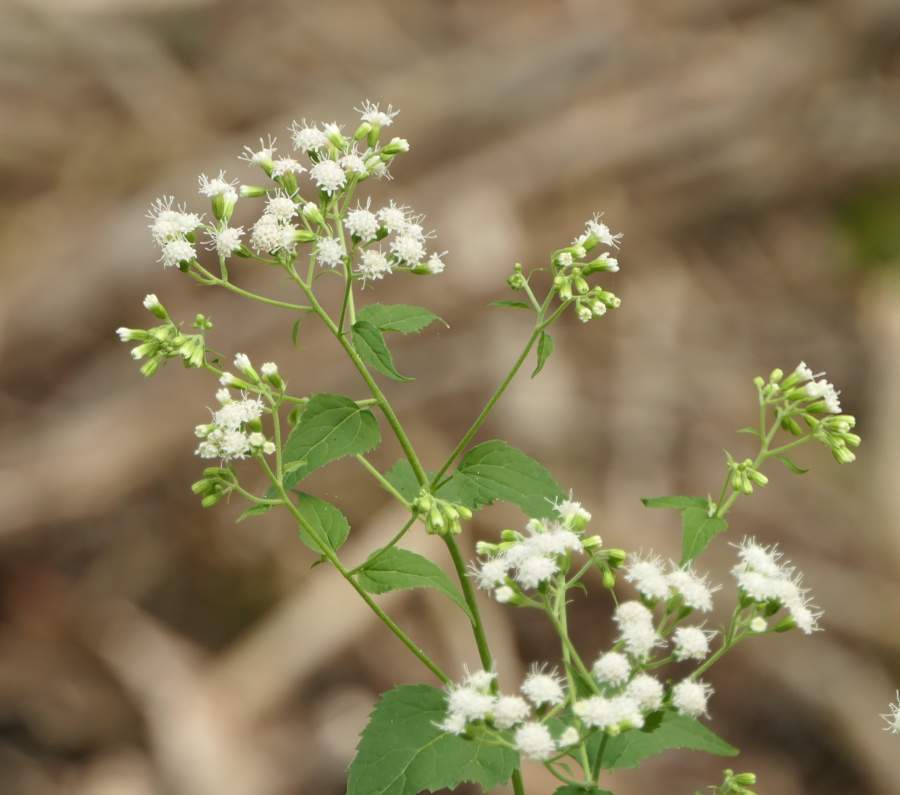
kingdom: Plantae
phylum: Tracheophyta
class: Magnoliopsida
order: Asterales
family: Asteraceae
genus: Ageratina
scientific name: Ageratina altissima
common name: White snakeroot
